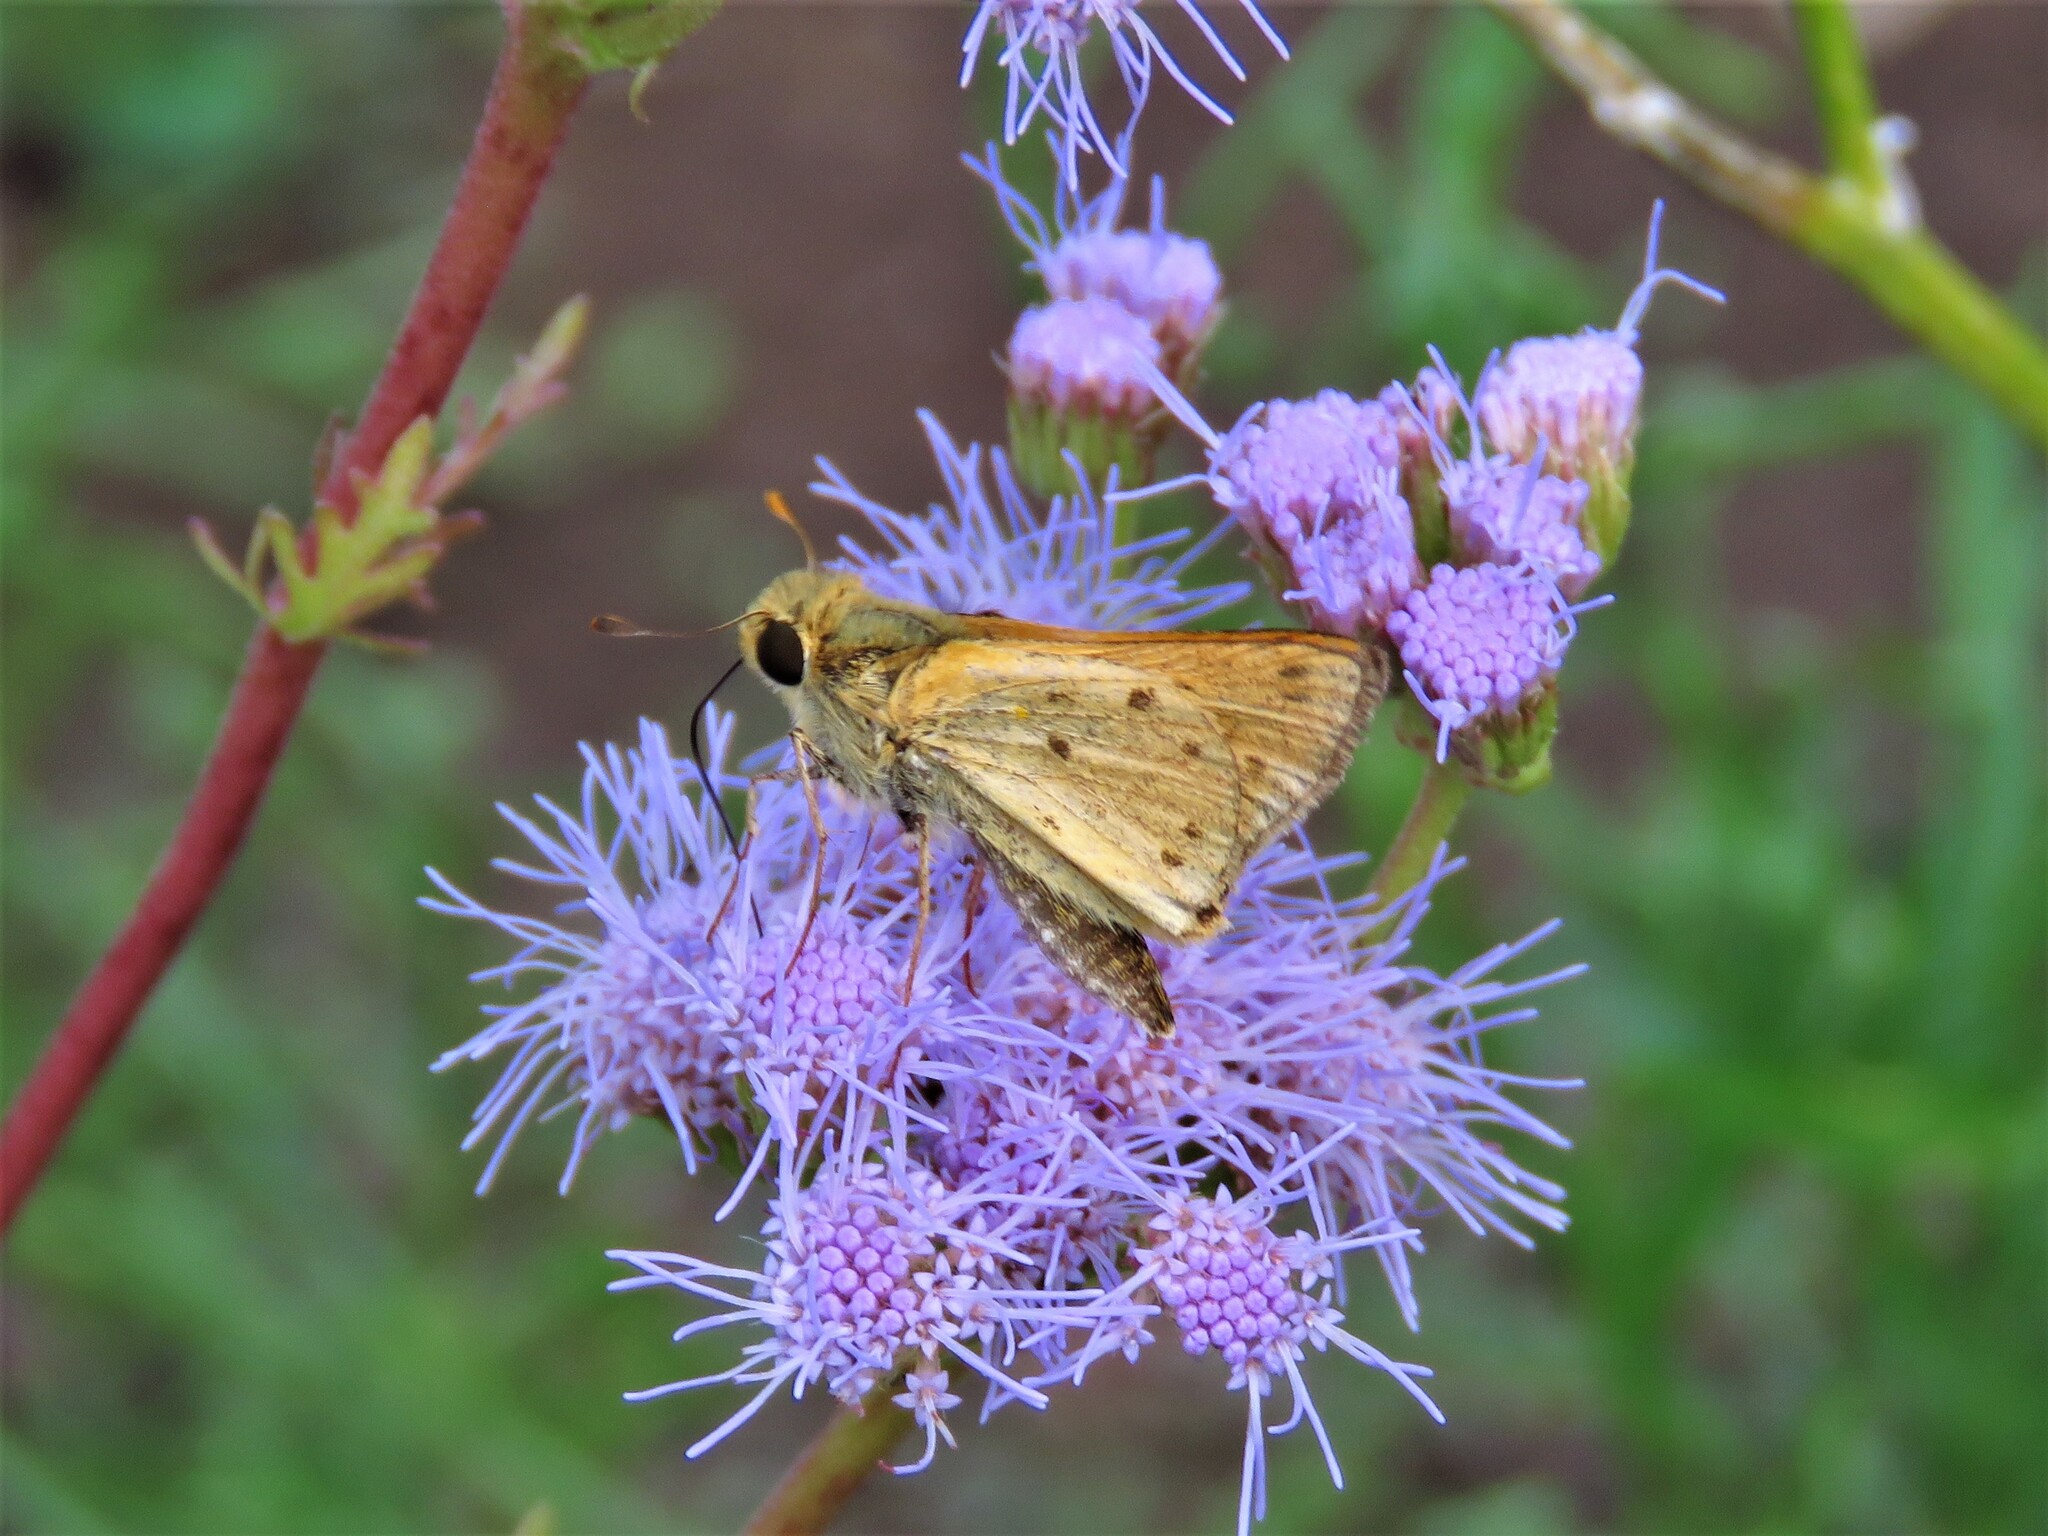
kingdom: Animalia
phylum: Arthropoda
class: Insecta
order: Lepidoptera
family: Hesperiidae
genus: Hylephila
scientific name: Hylephila phyleus
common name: Fiery skipper
